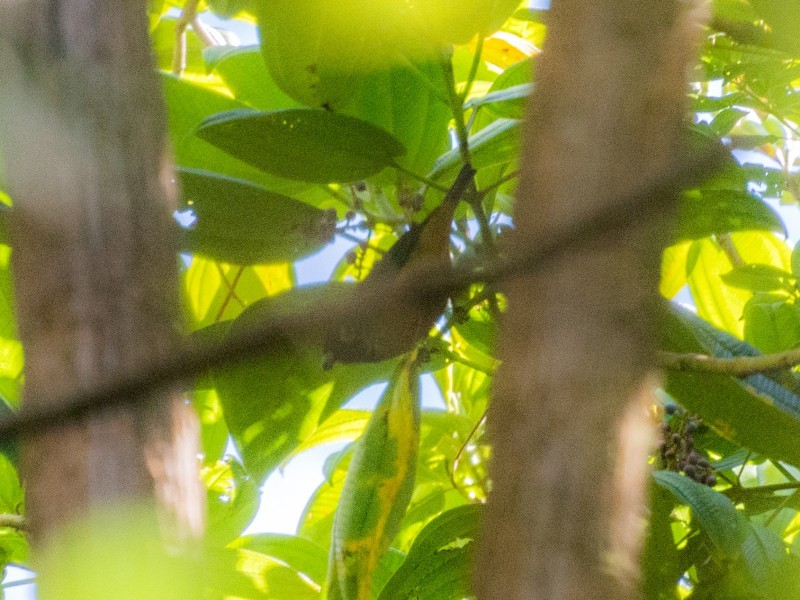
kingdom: Animalia
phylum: Chordata
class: Aves
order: Passeriformes
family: Thraupidae
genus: Tangara
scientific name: Tangara dowii
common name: Spangle-cheeked tanager
